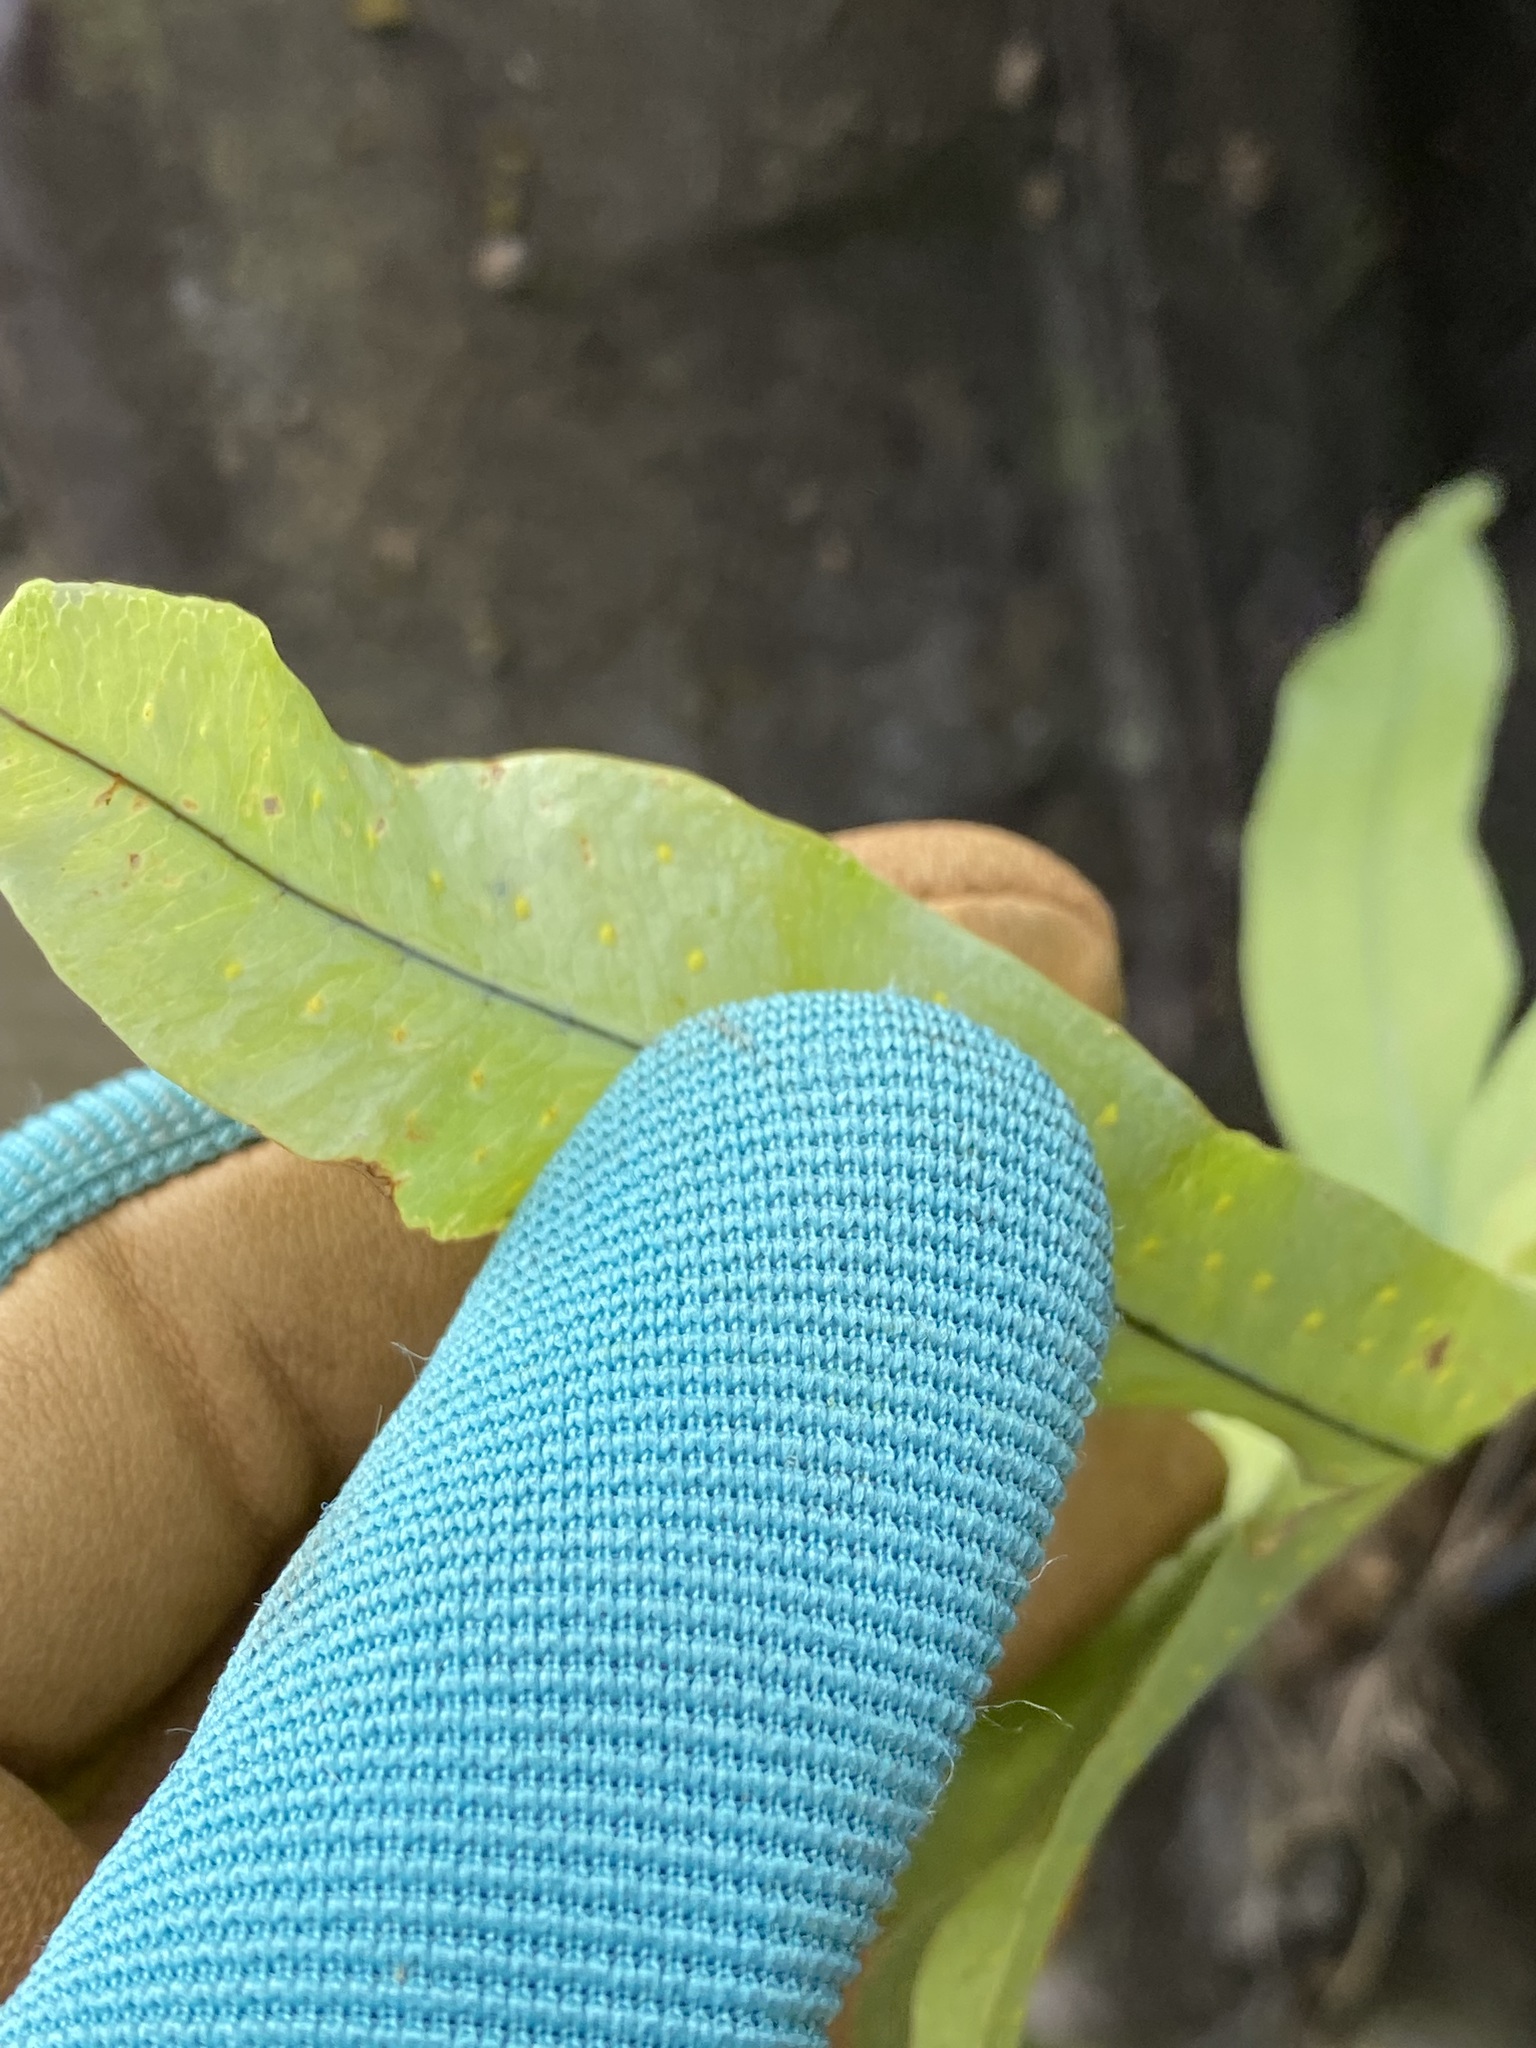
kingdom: Plantae
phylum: Tracheophyta
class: Polypodiopsida
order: Polypodiales
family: Polypodiaceae
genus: Phlebodium
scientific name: Phlebodium aureum
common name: Gold-foot fern
